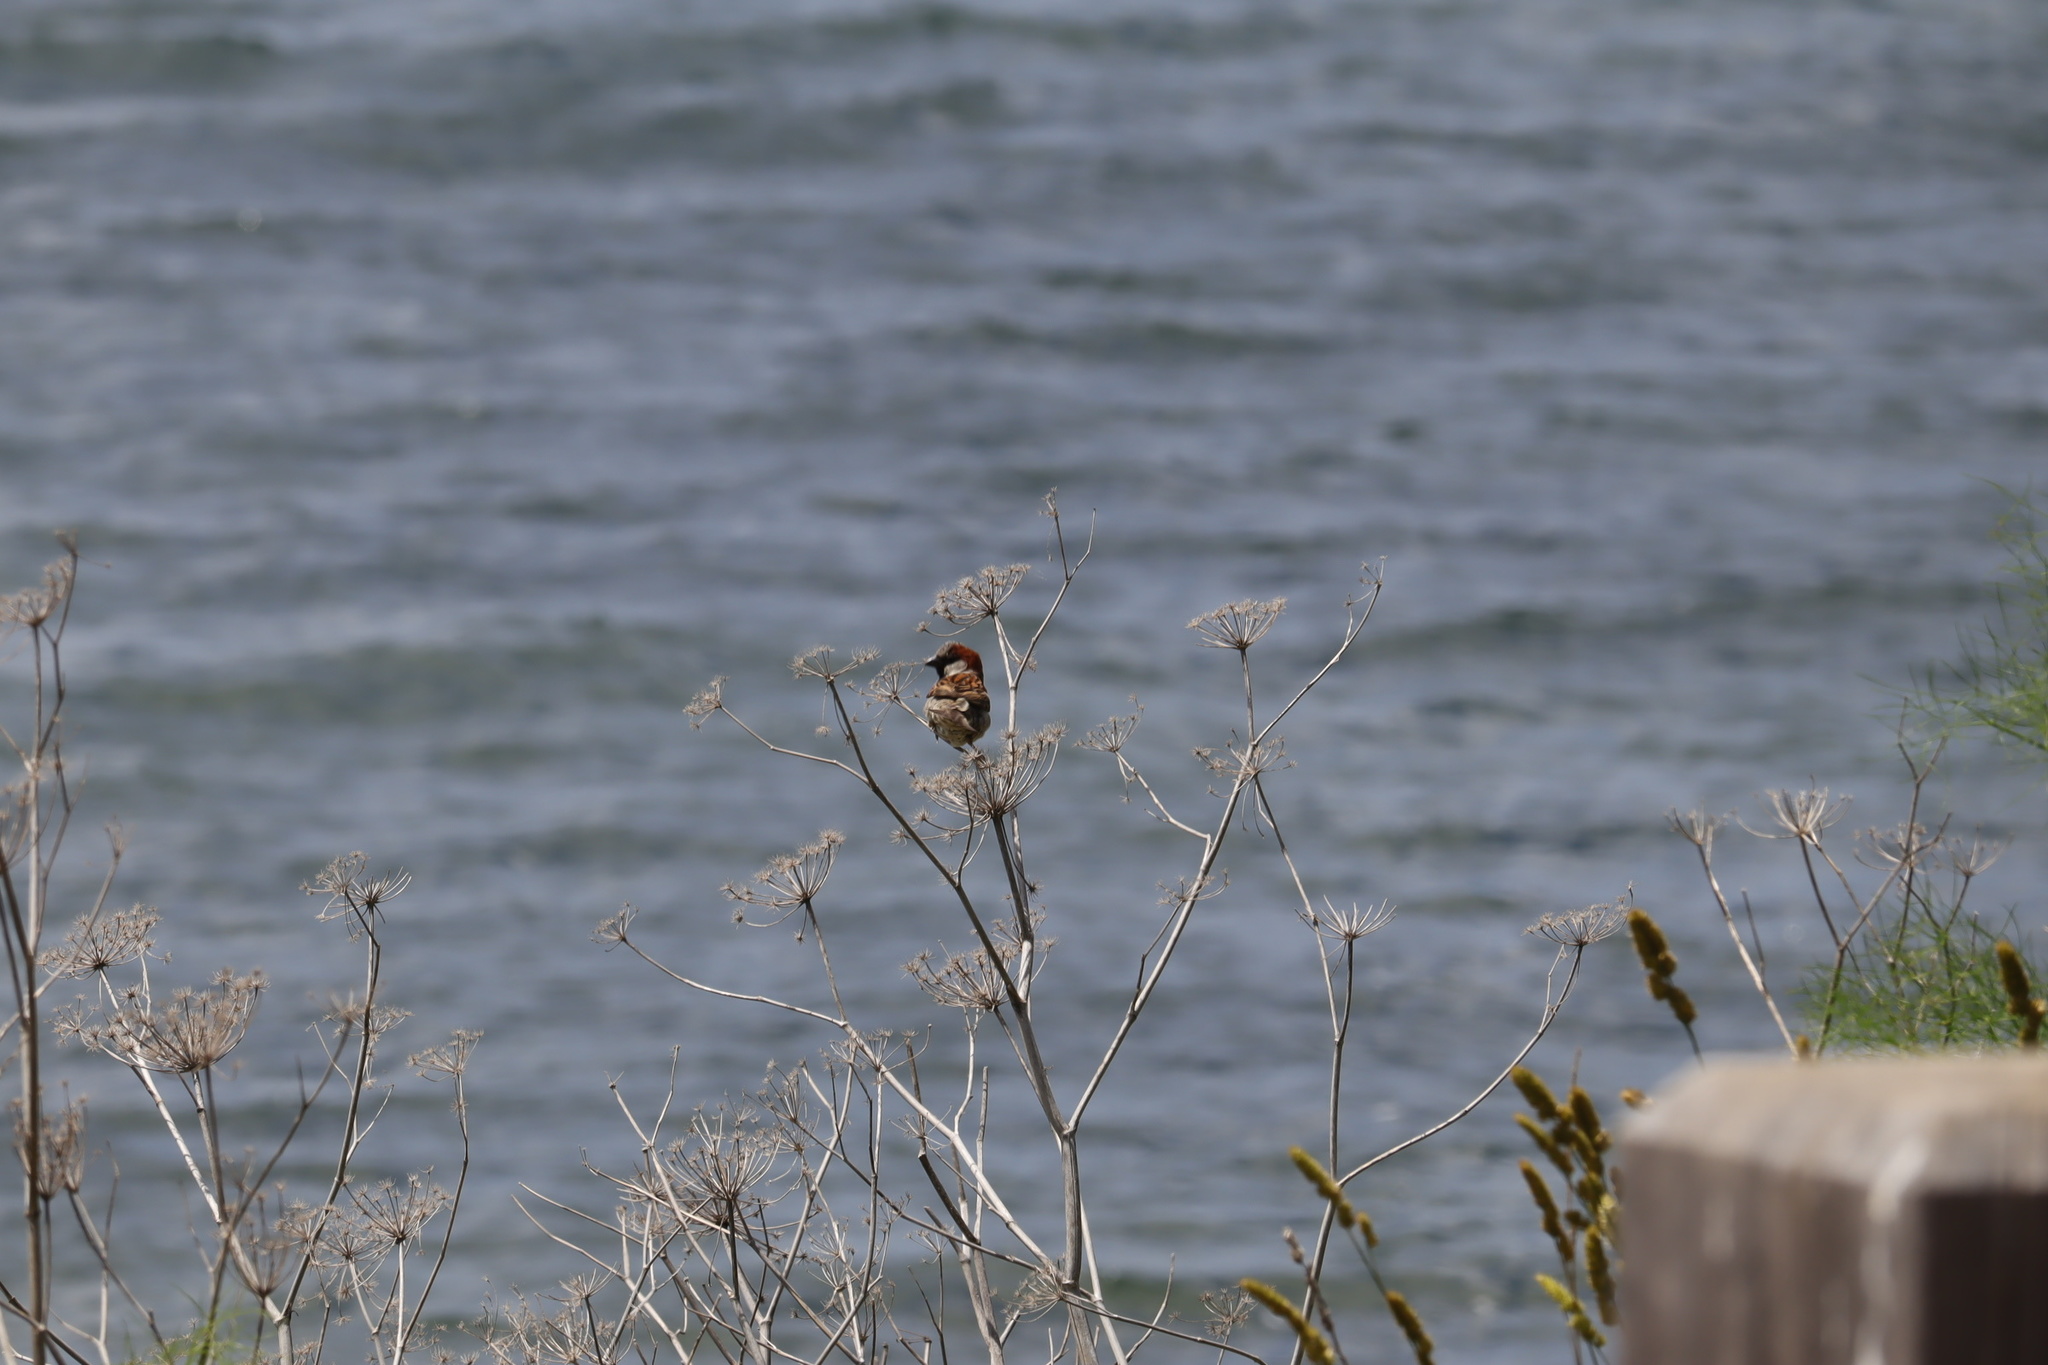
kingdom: Animalia
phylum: Chordata
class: Aves
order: Passeriformes
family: Passeridae
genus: Passer
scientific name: Passer domesticus
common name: House sparrow
